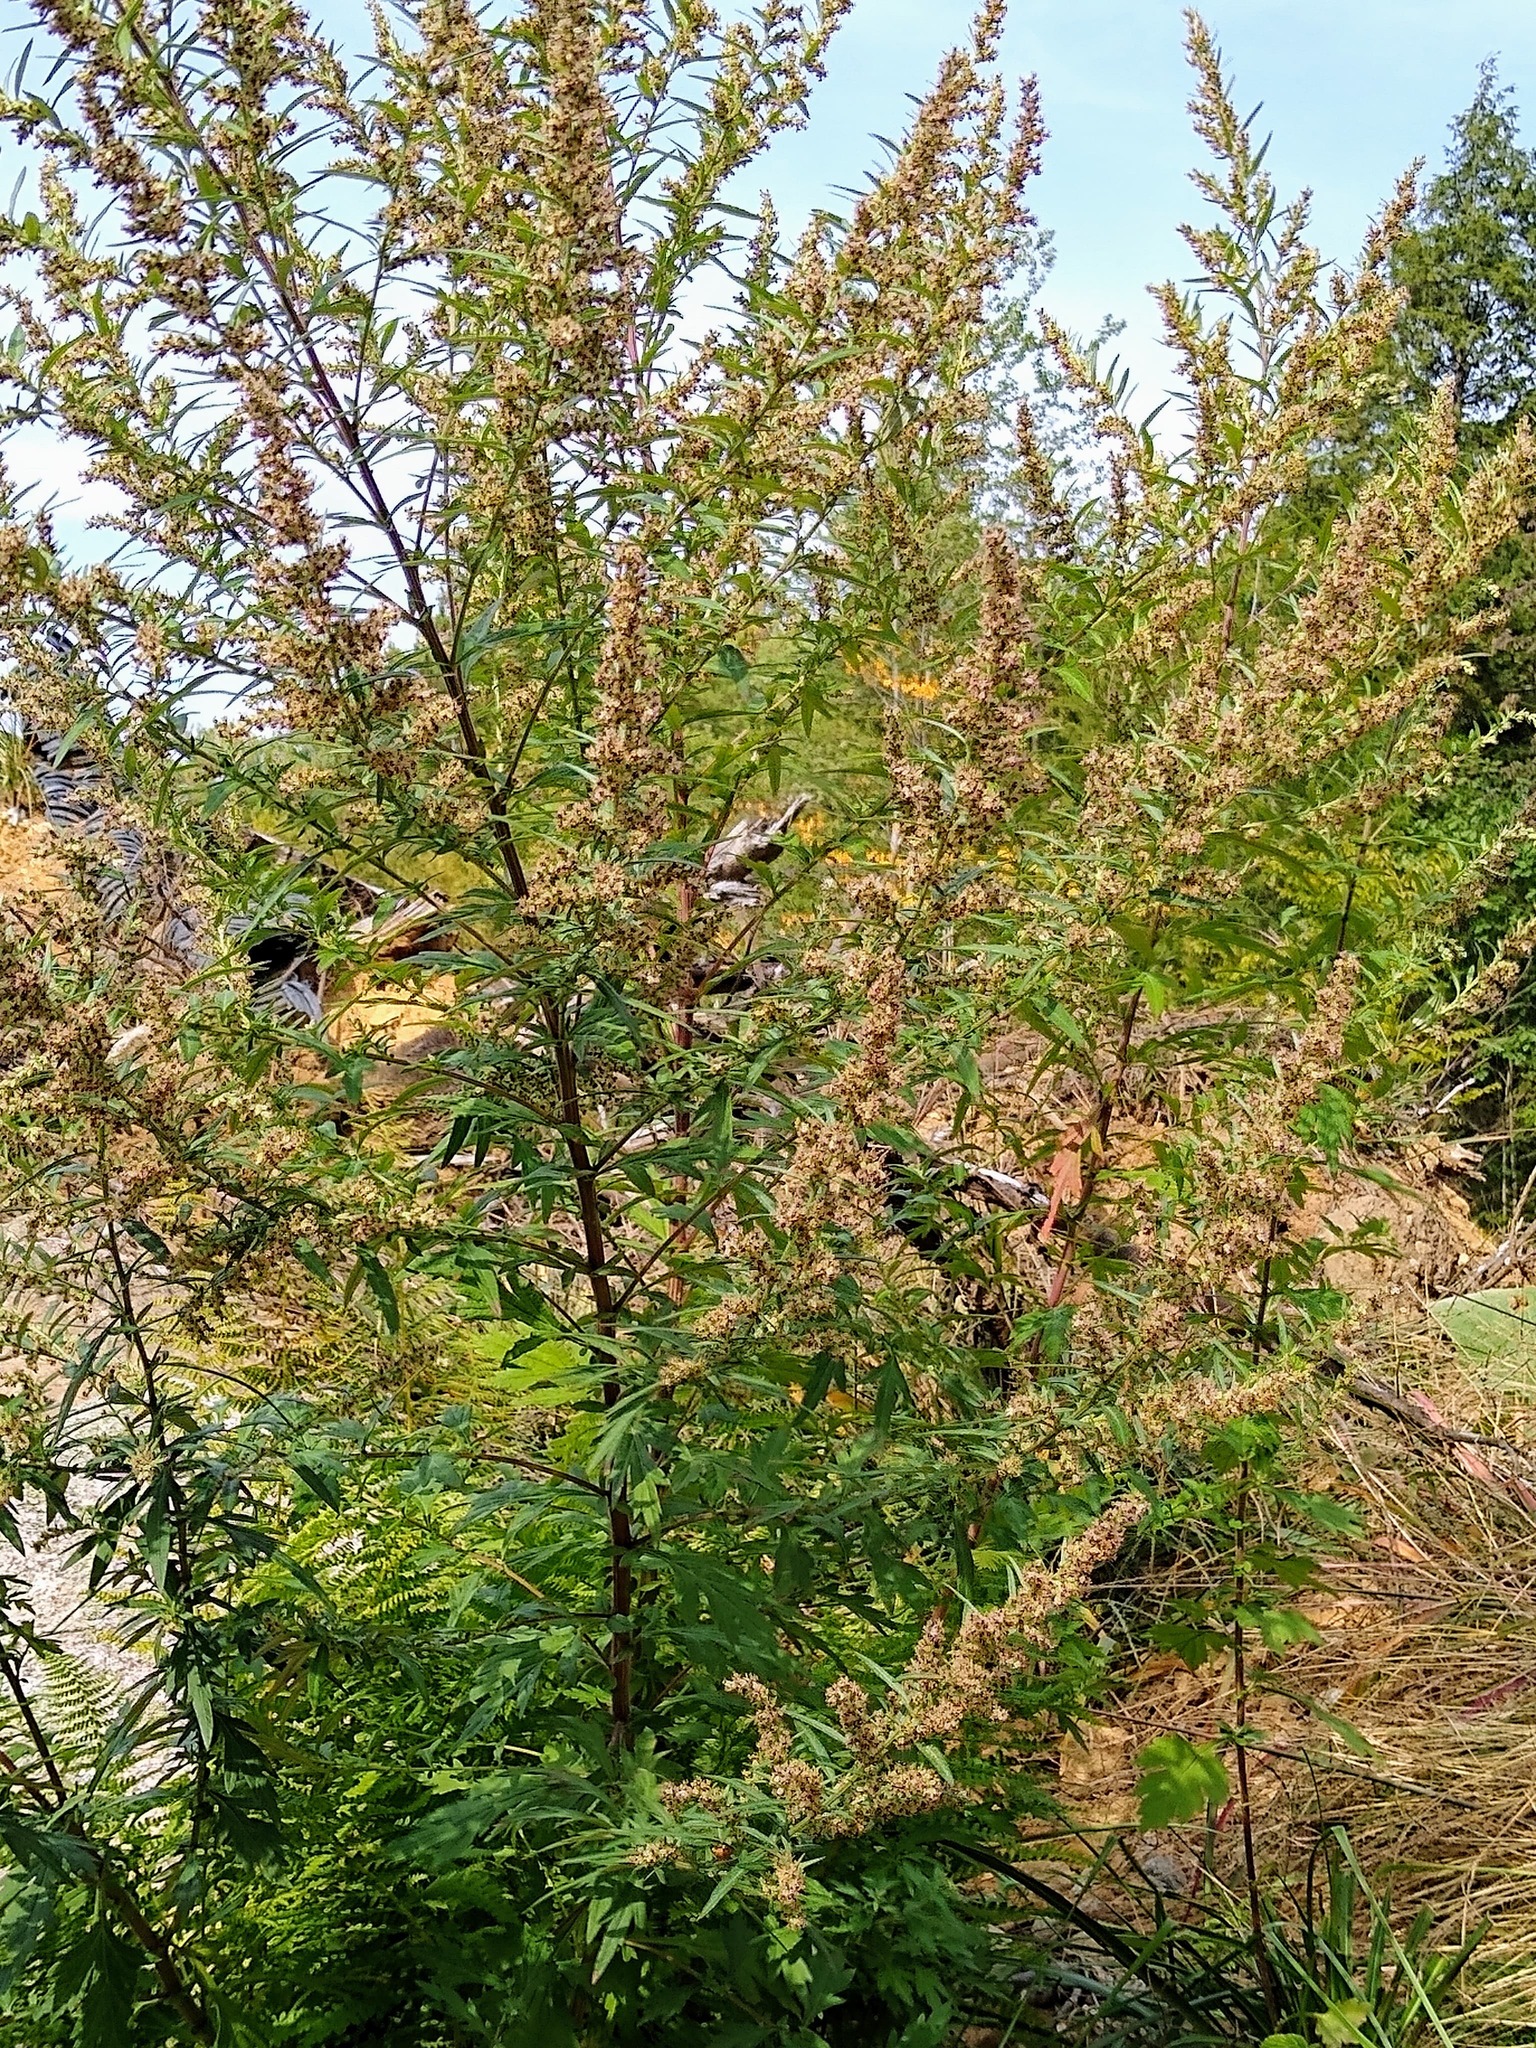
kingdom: Plantae
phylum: Tracheophyta
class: Magnoliopsida
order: Asterales
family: Asteraceae
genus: Artemisia
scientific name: Artemisia vulgaris
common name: Mugwort
